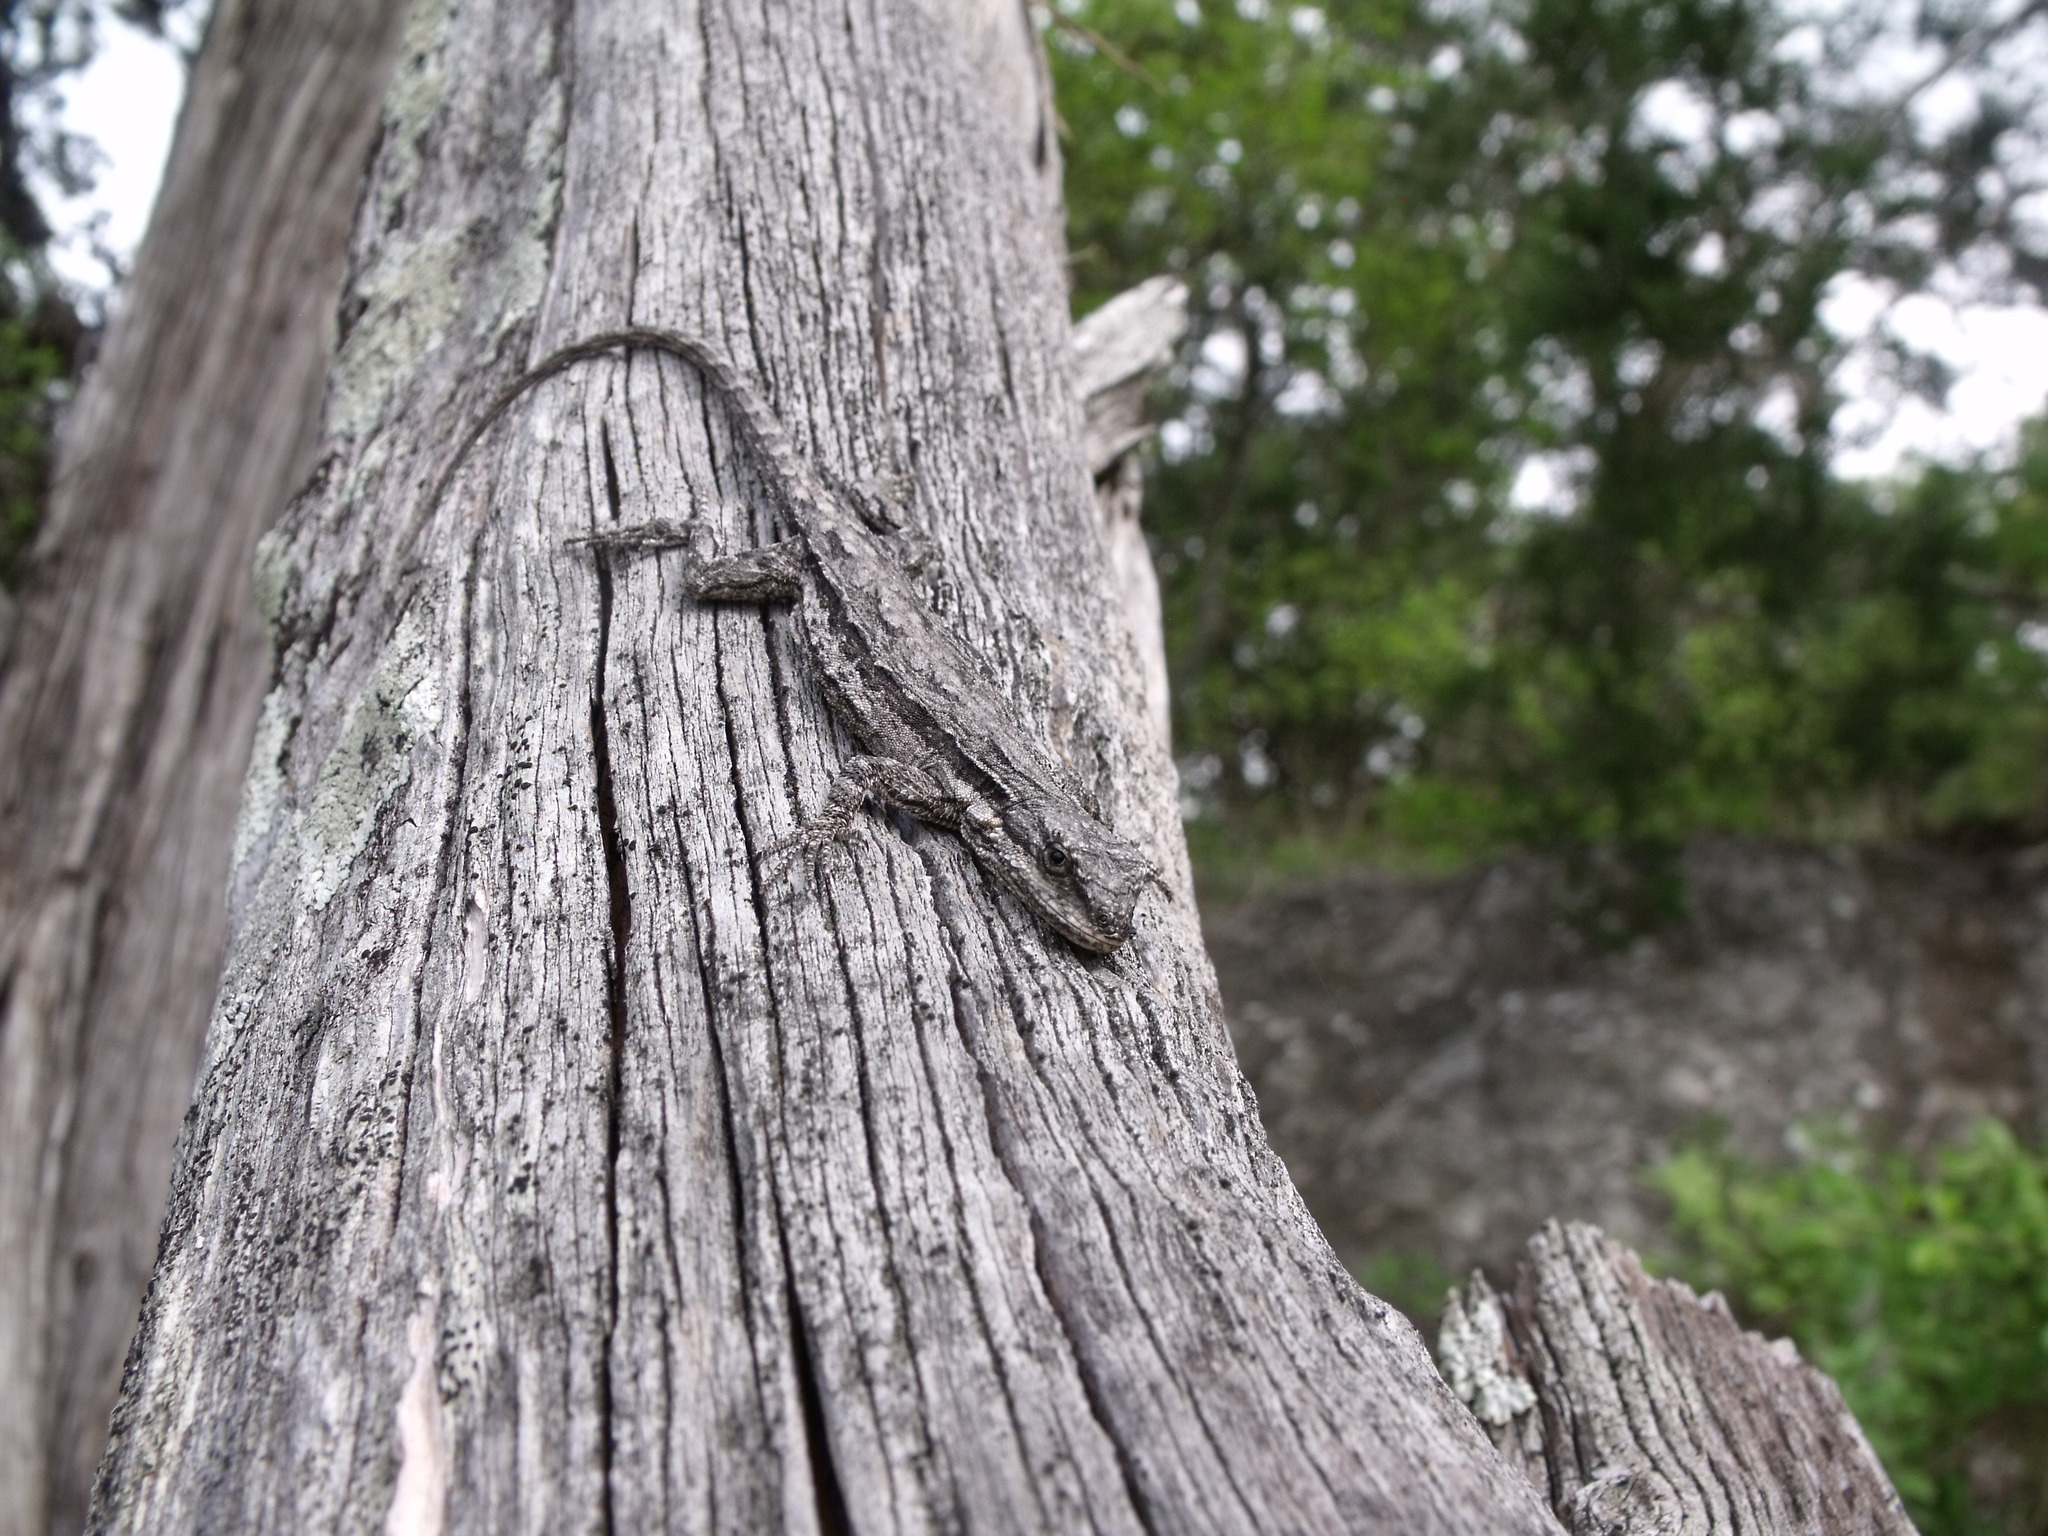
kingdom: Animalia
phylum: Chordata
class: Squamata
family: Phrynosomatidae
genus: Urosaurus
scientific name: Urosaurus ornatus
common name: Ornate tree lizard
